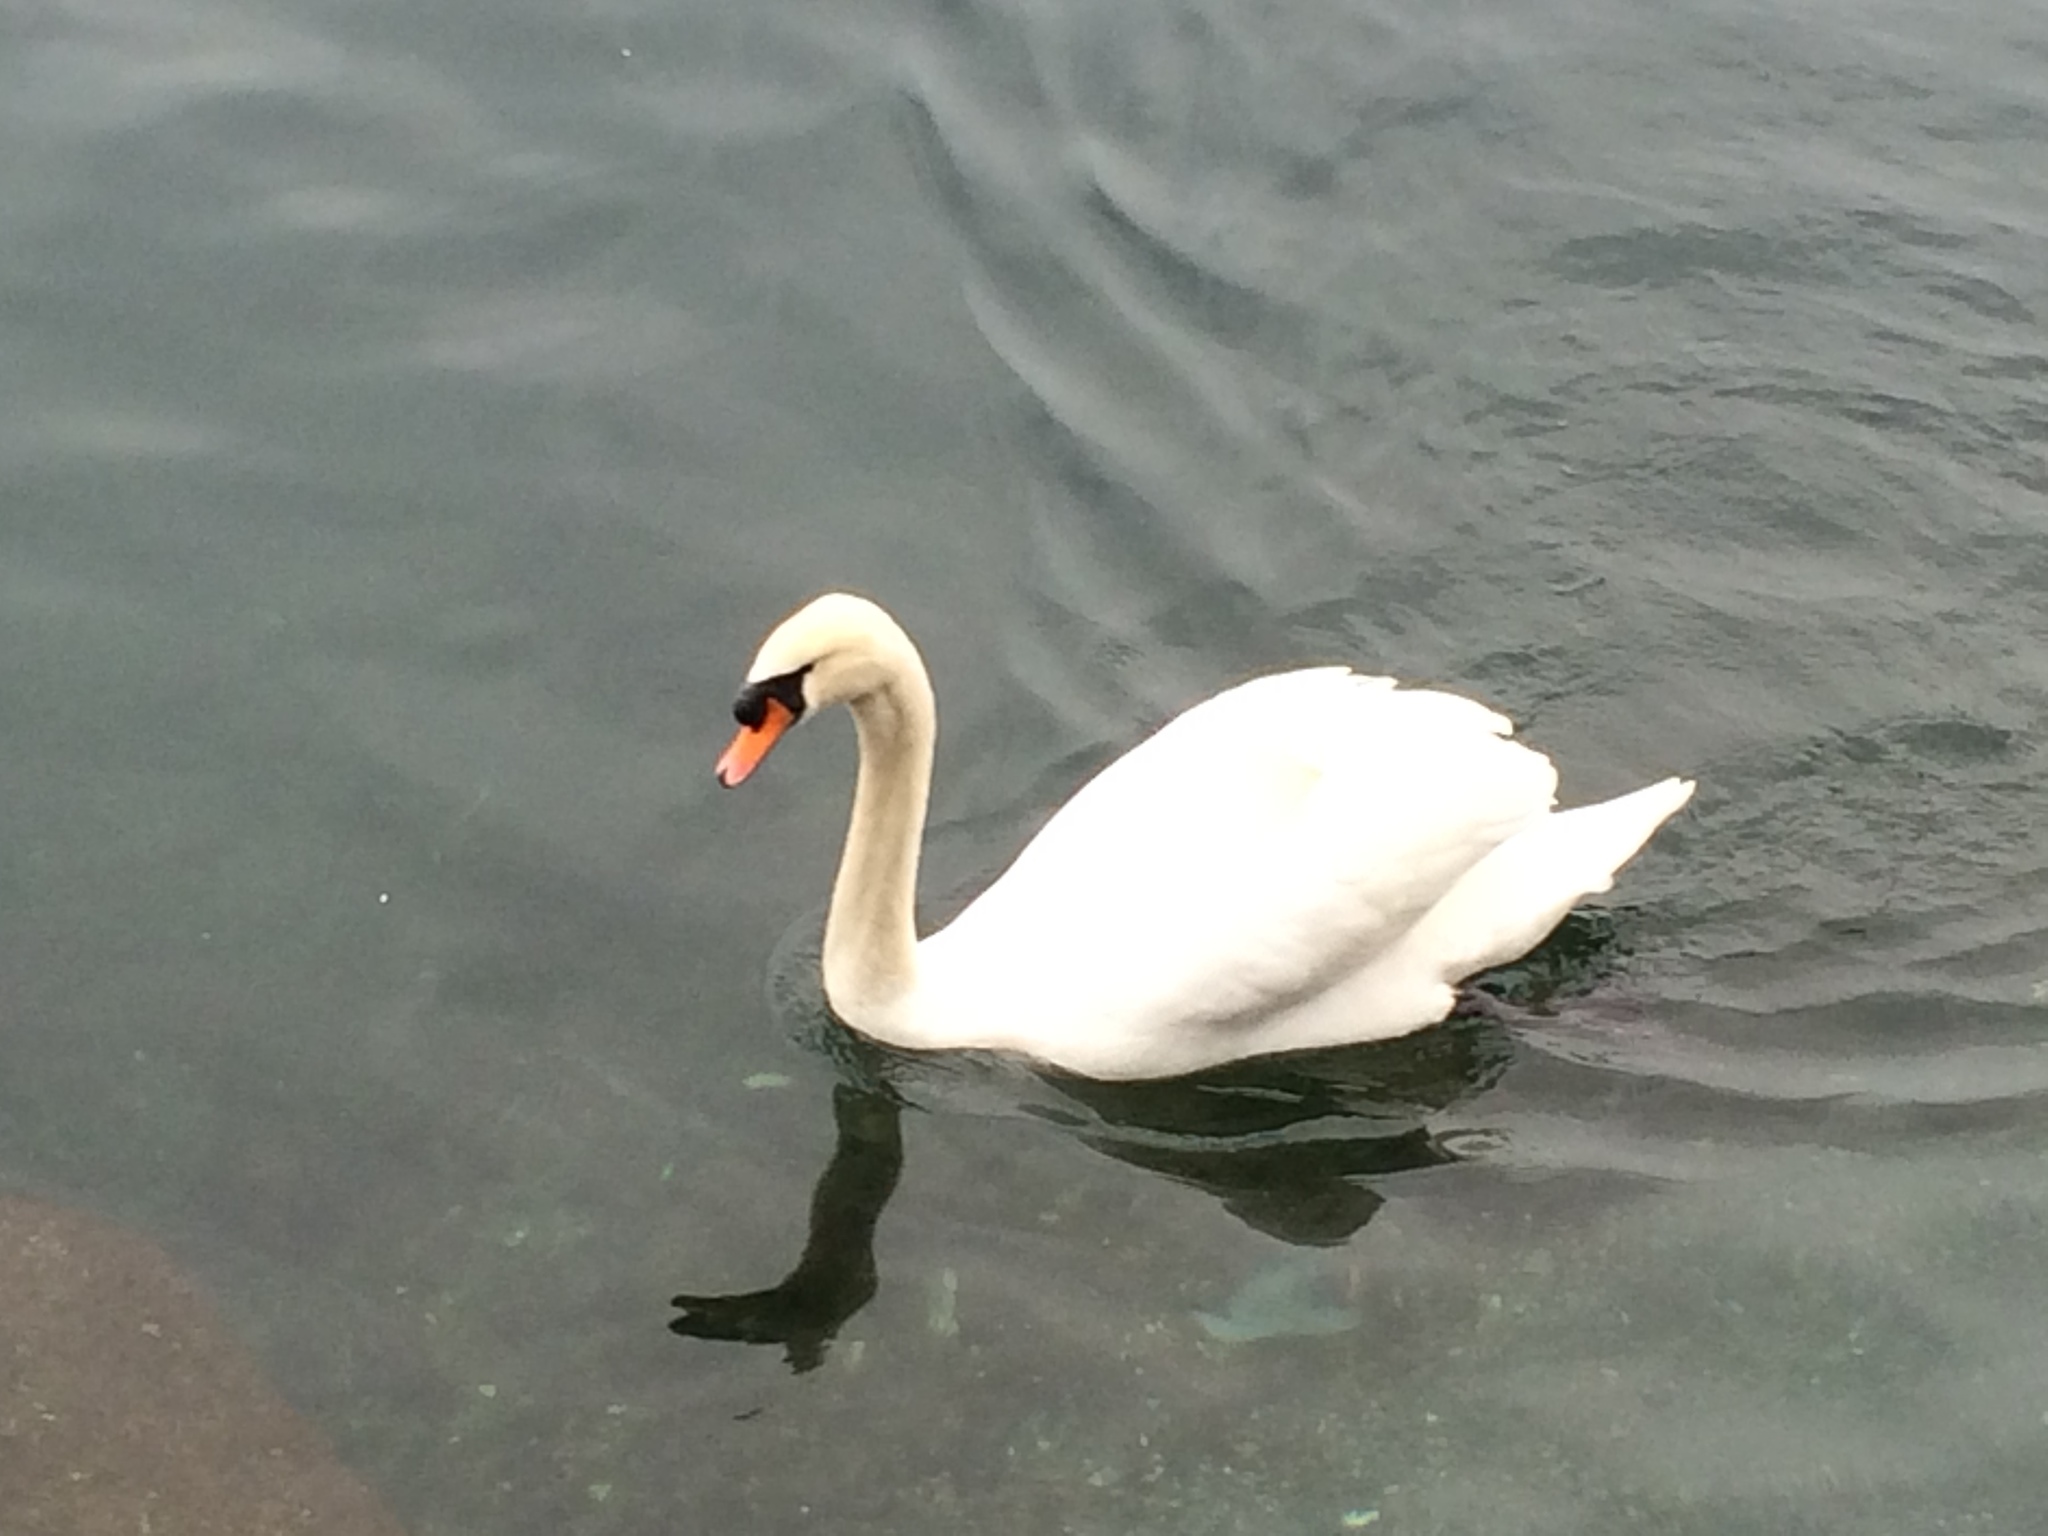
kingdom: Animalia
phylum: Chordata
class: Aves
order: Anseriformes
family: Anatidae
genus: Cygnus
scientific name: Cygnus olor
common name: Mute swan
